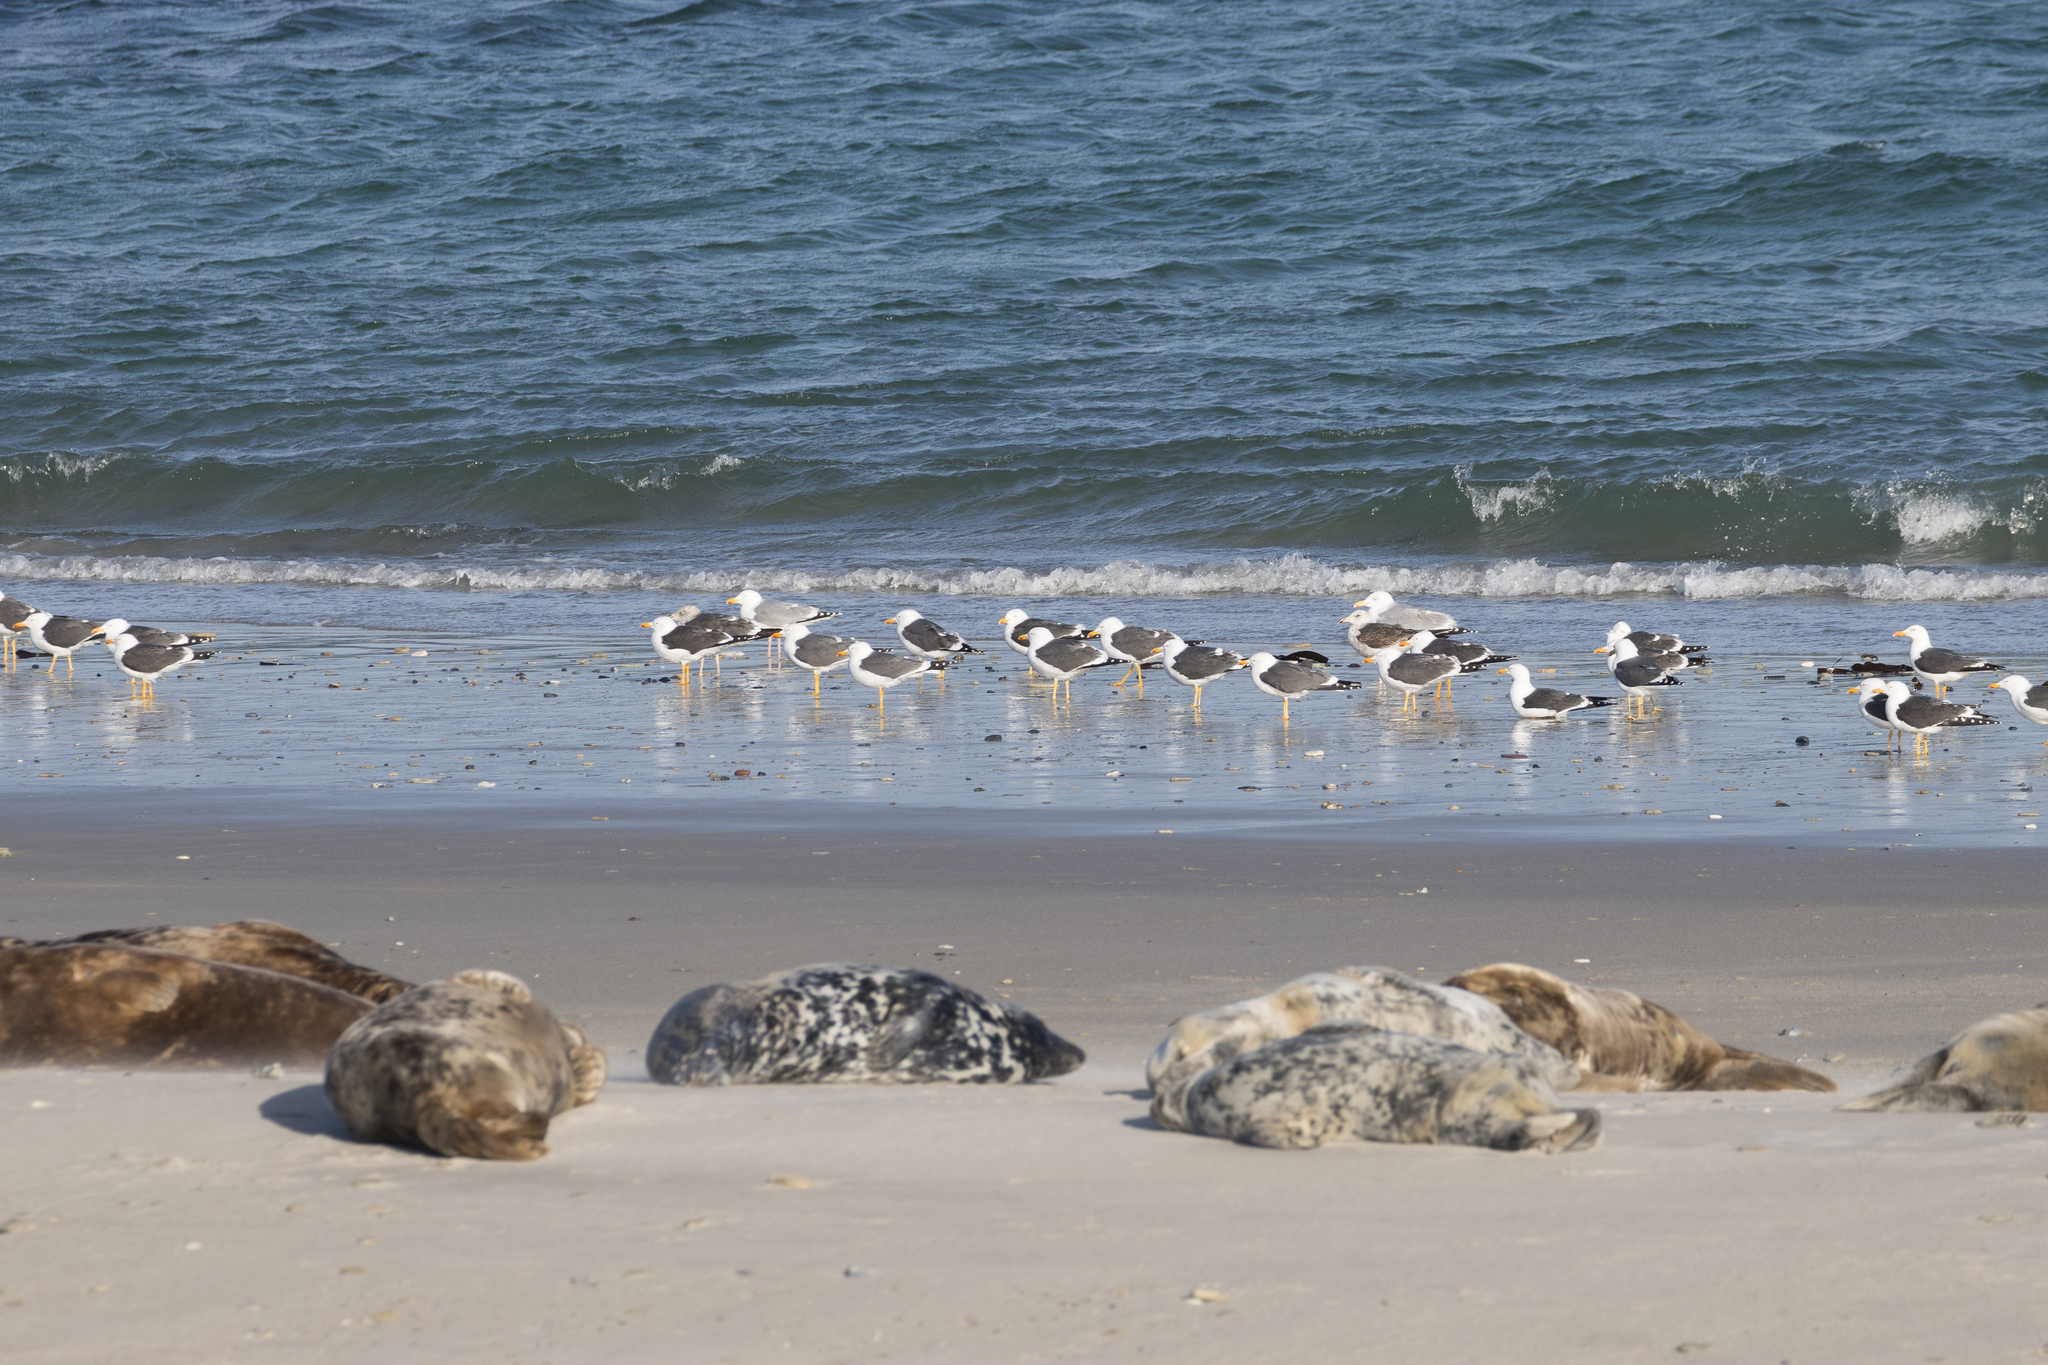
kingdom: Animalia
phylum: Chordata
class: Aves
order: Charadriiformes
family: Laridae
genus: Larus
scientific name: Larus fuscus
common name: Lesser black-backed gull
